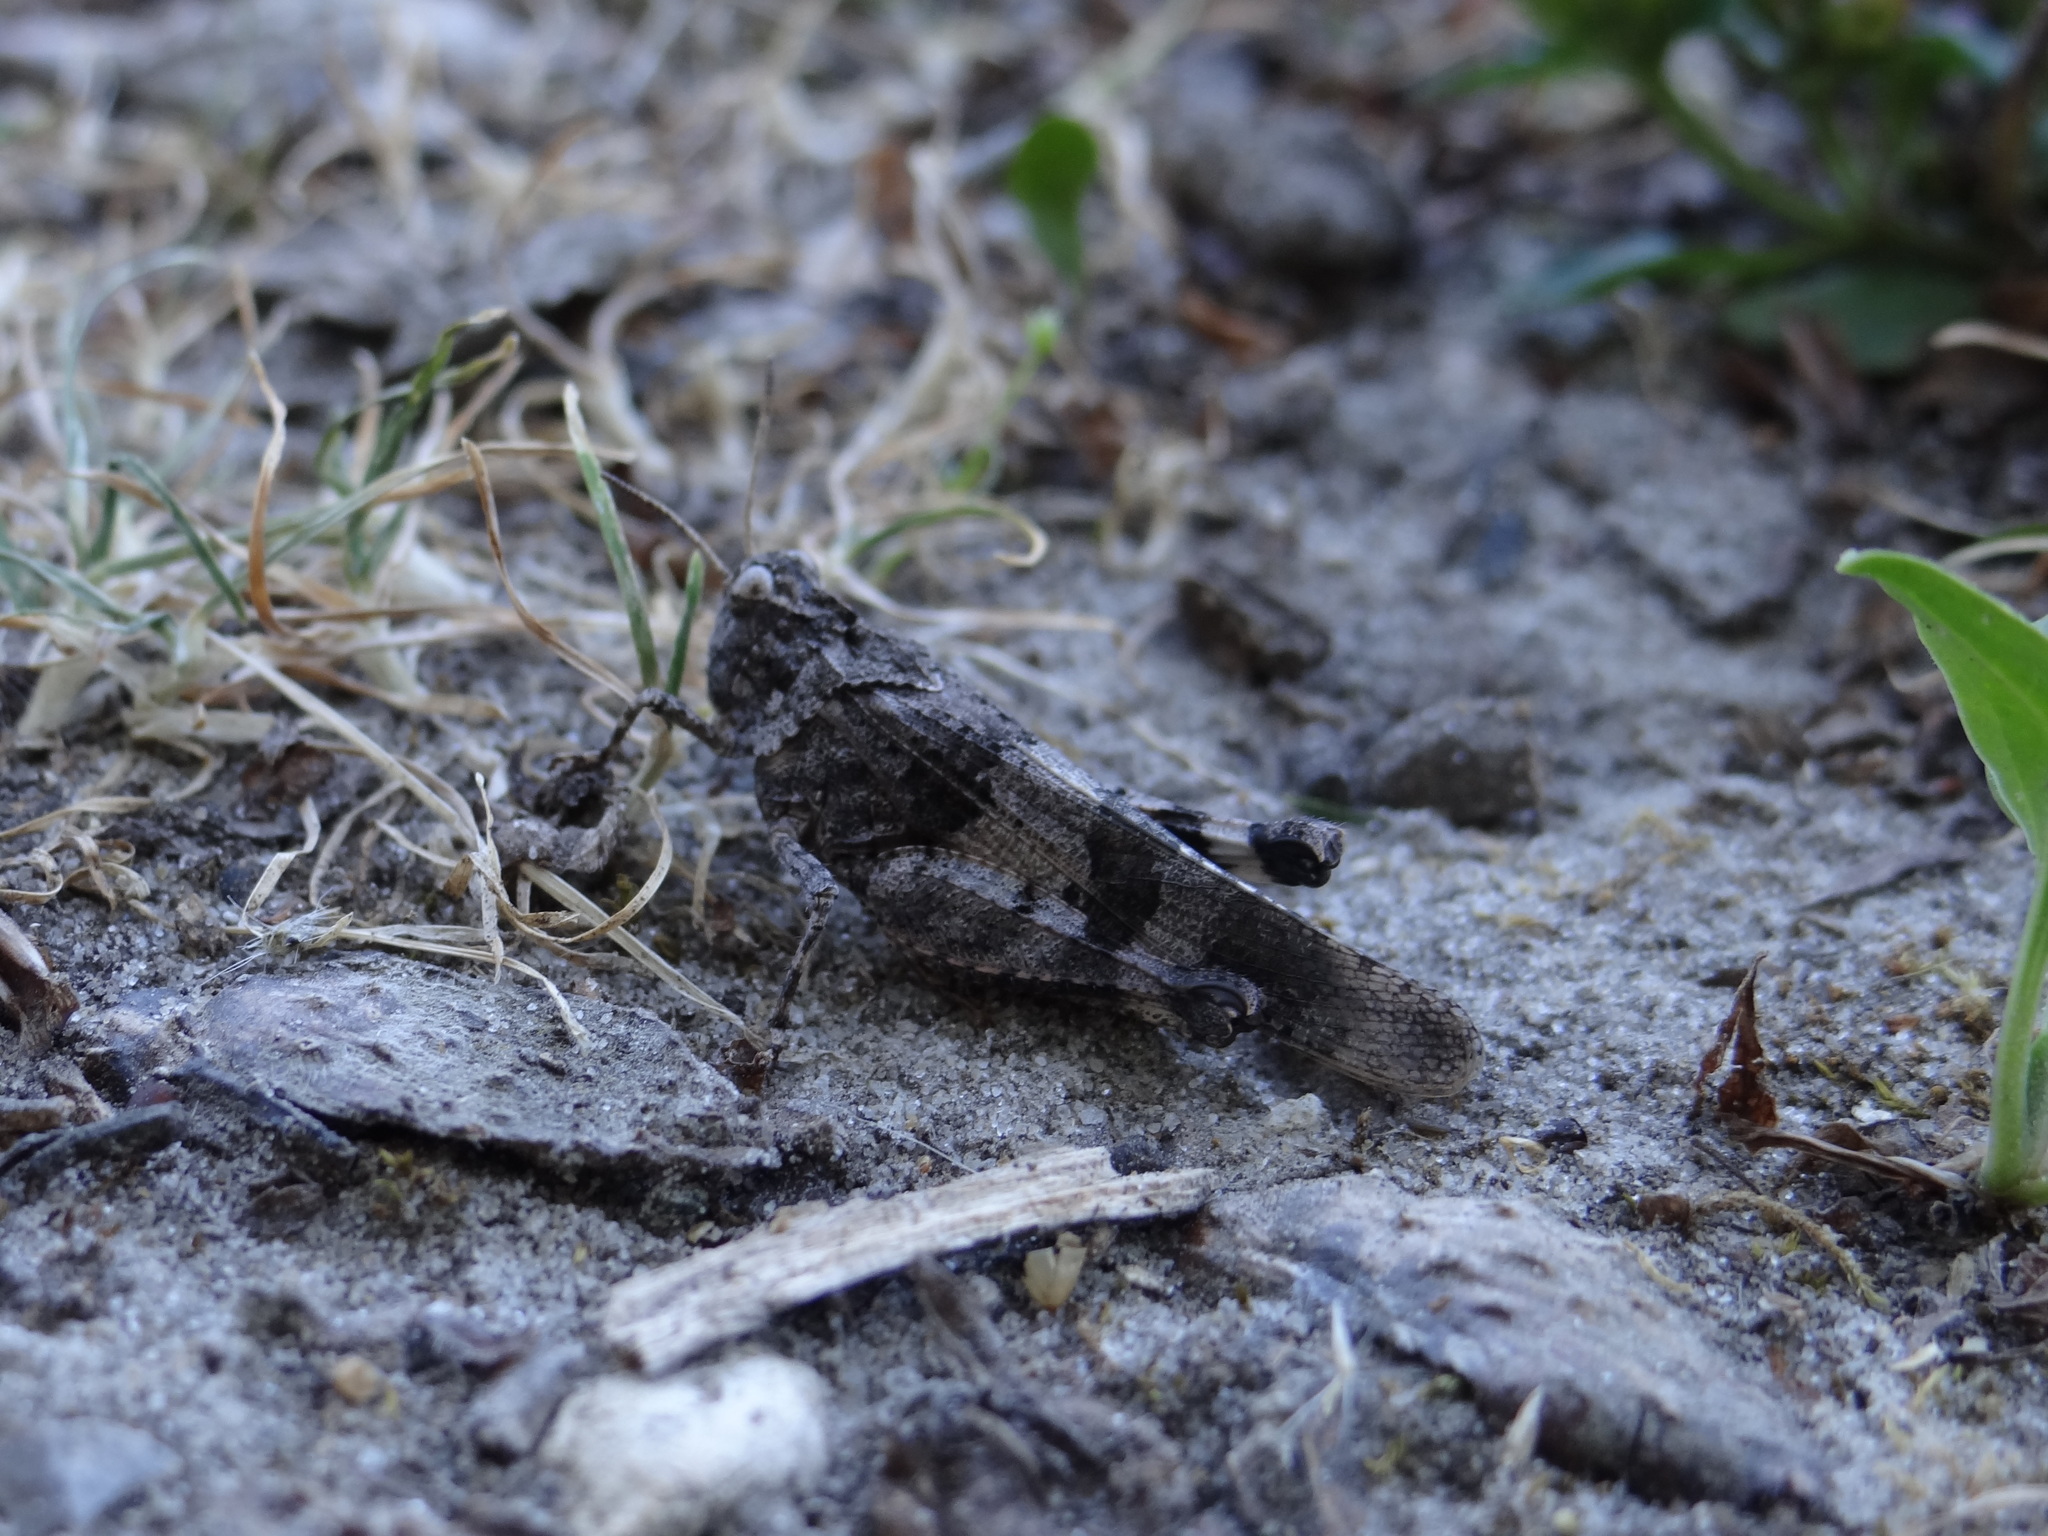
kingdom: Animalia
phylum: Arthropoda
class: Insecta
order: Orthoptera
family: Acrididae
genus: Oedipoda
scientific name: Oedipoda caerulescens
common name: Blue-winged grasshopper
